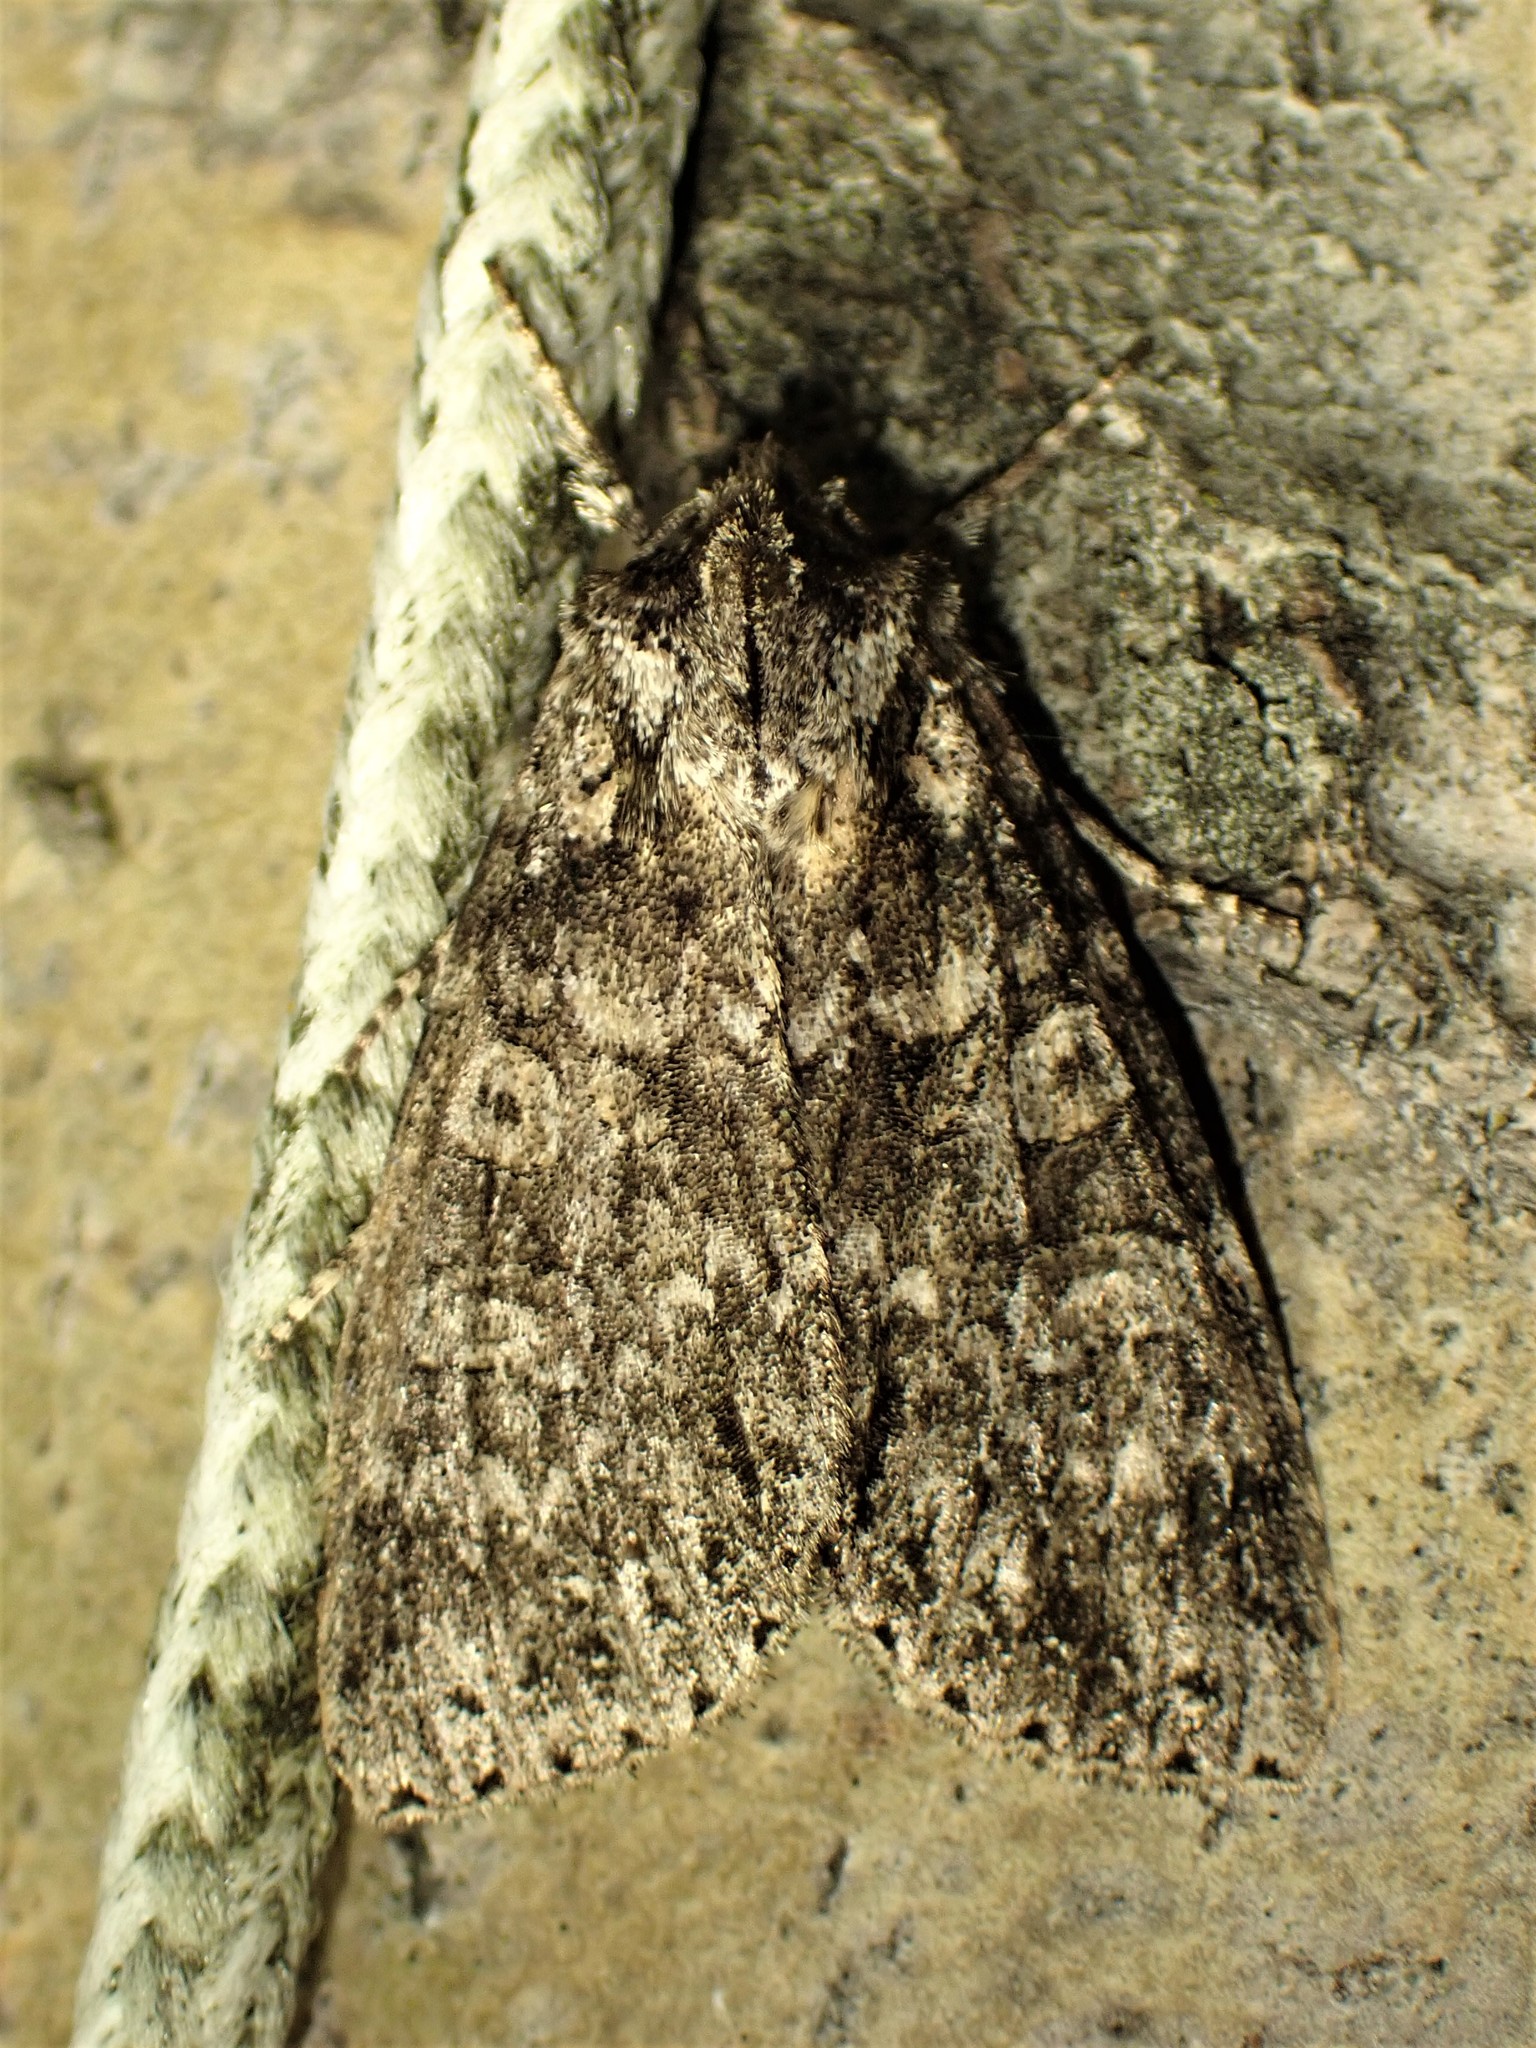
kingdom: Animalia
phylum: Arthropoda
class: Insecta
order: Lepidoptera
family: Noctuidae
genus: Polia
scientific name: Polia imbrifera
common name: Cloudy arches moth
